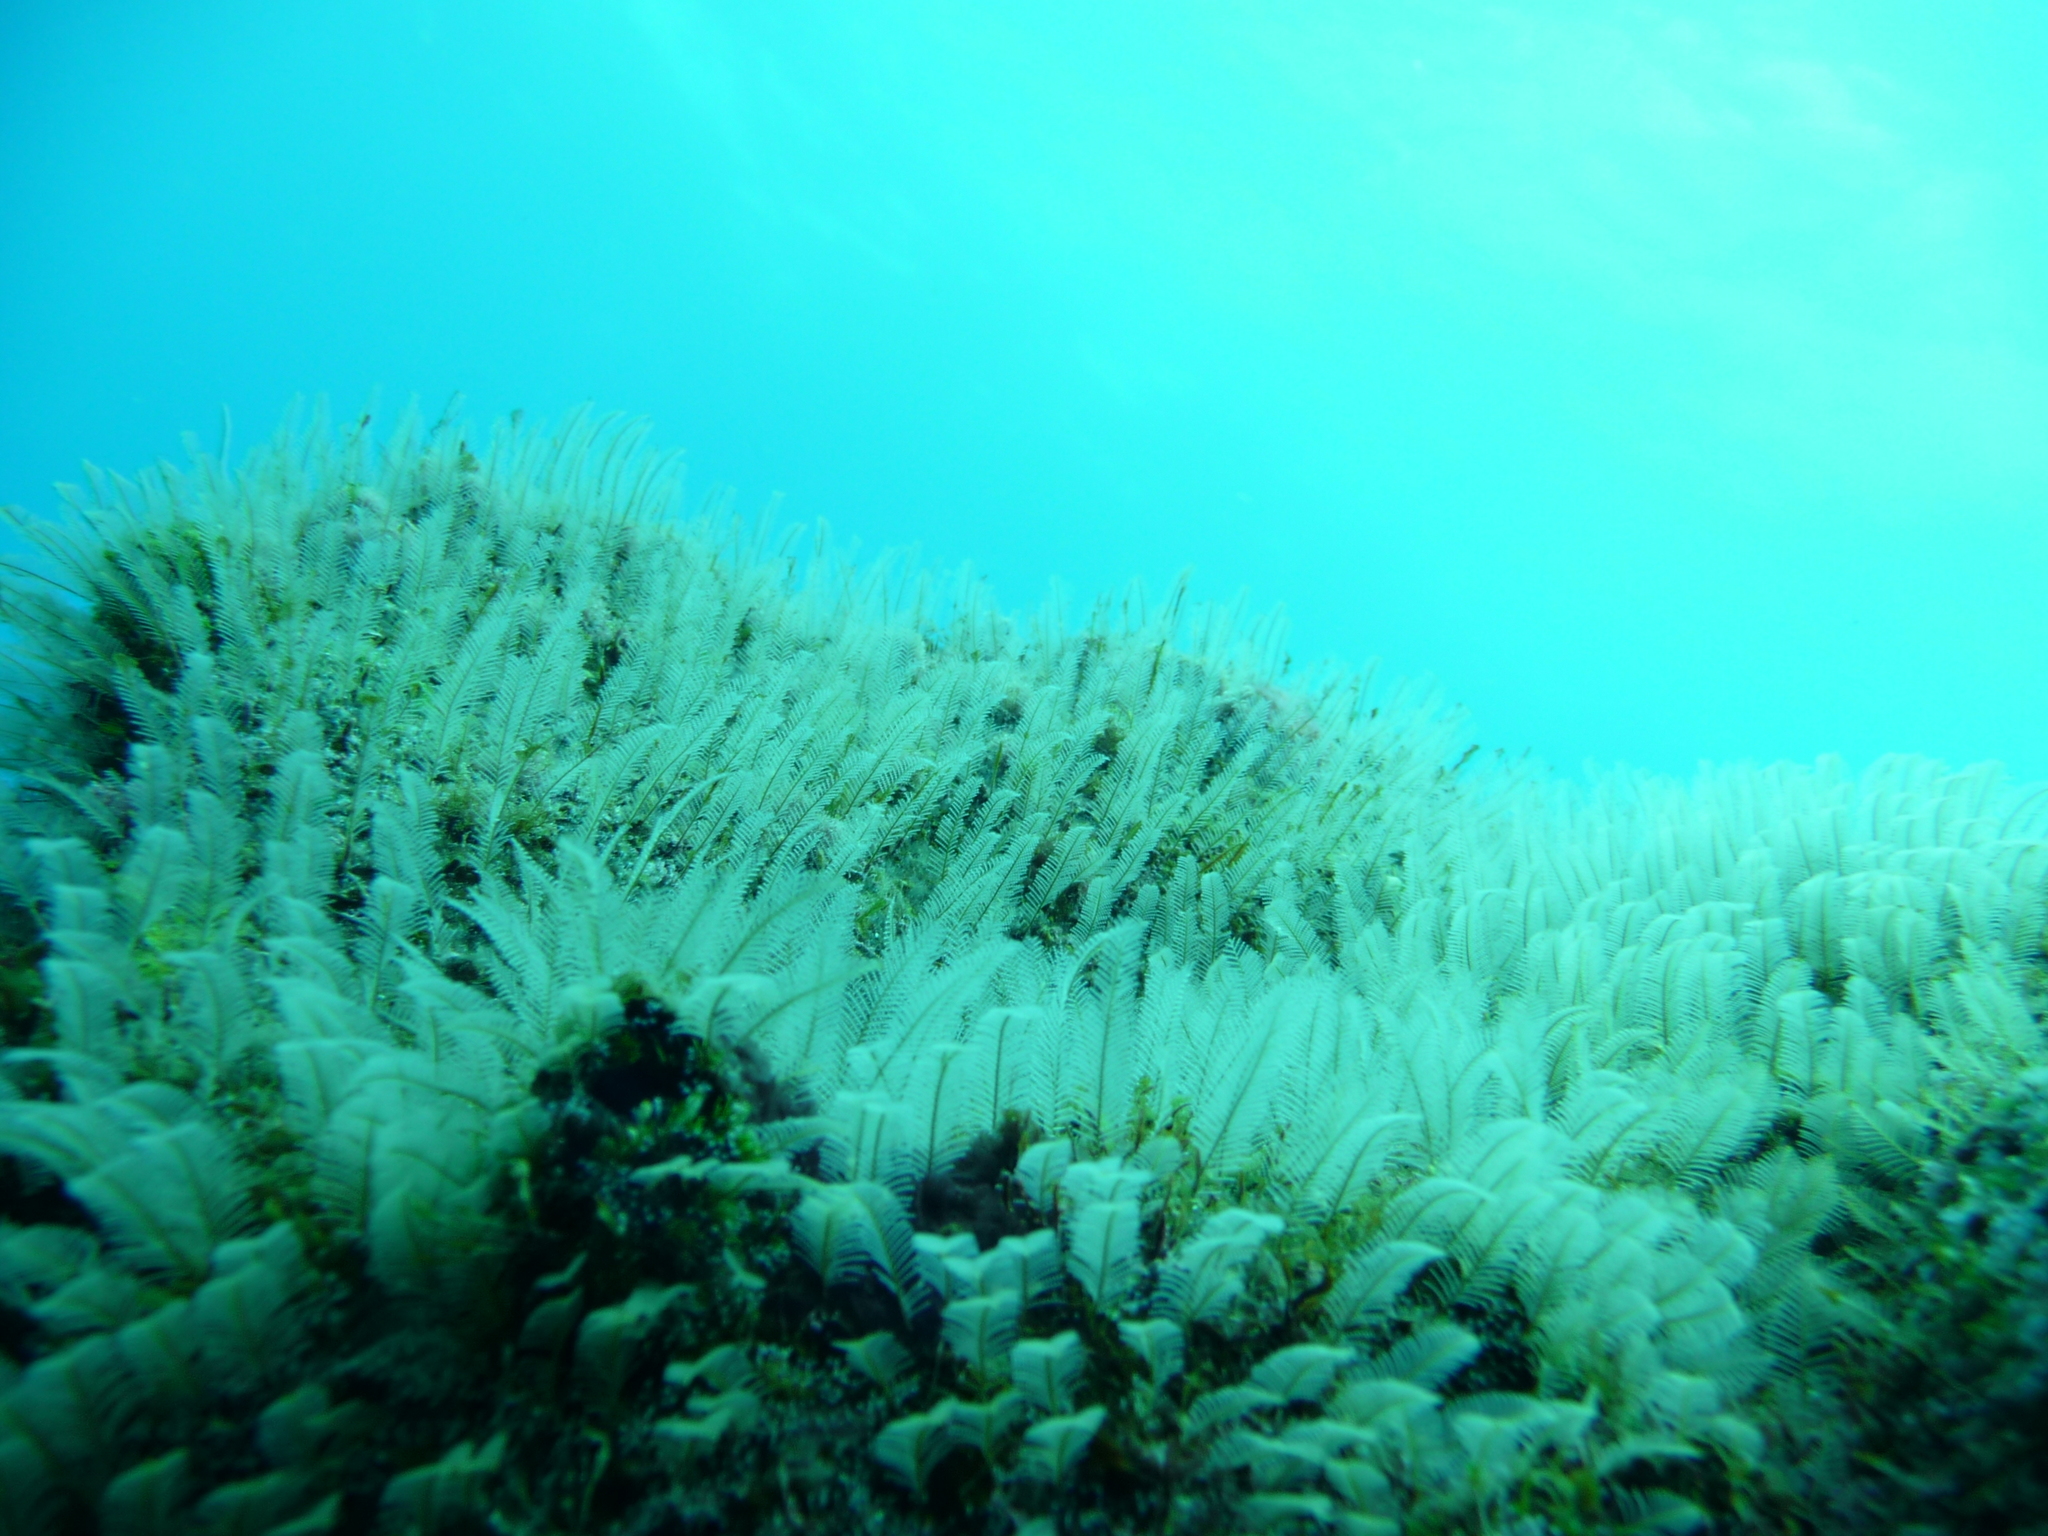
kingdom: Animalia
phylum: Cnidaria
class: Hydrozoa
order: Leptothecata
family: Aglaopheniidae
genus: Aglaophenia
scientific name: Aglaophenia pluma
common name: Podded hydroid
